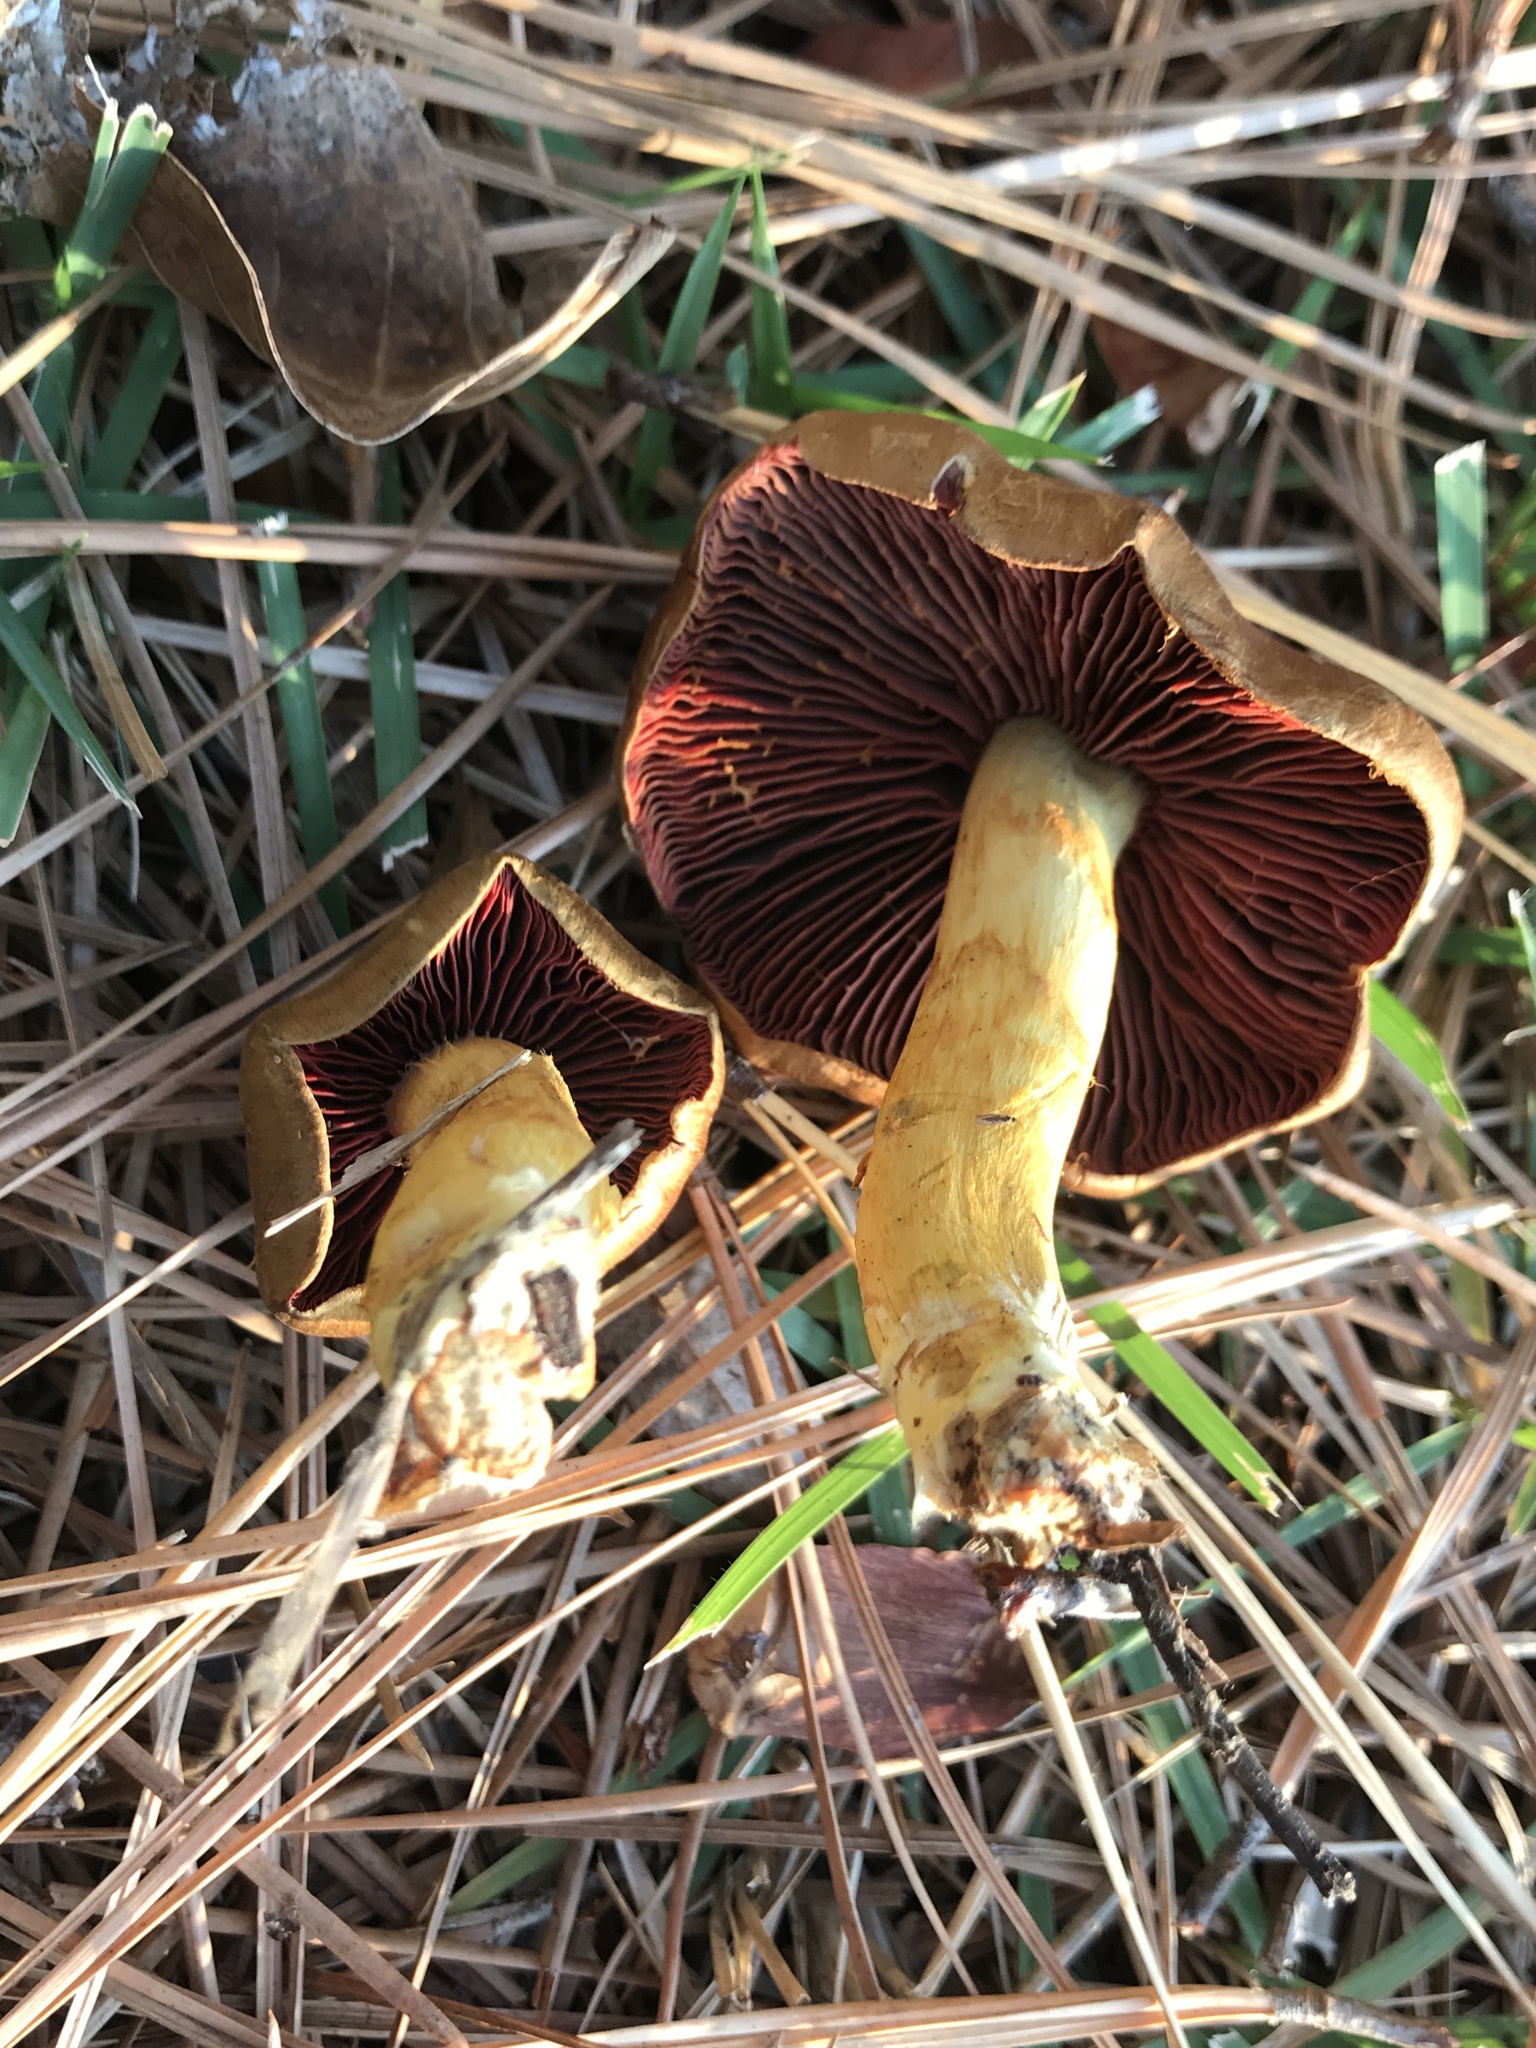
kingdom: Fungi
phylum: Basidiomycota
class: Agaricomycetes
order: Agaricales
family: Cortinariaceae
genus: Cortinarius
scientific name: Cortinarius semisanguineus
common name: Surprise webcap
